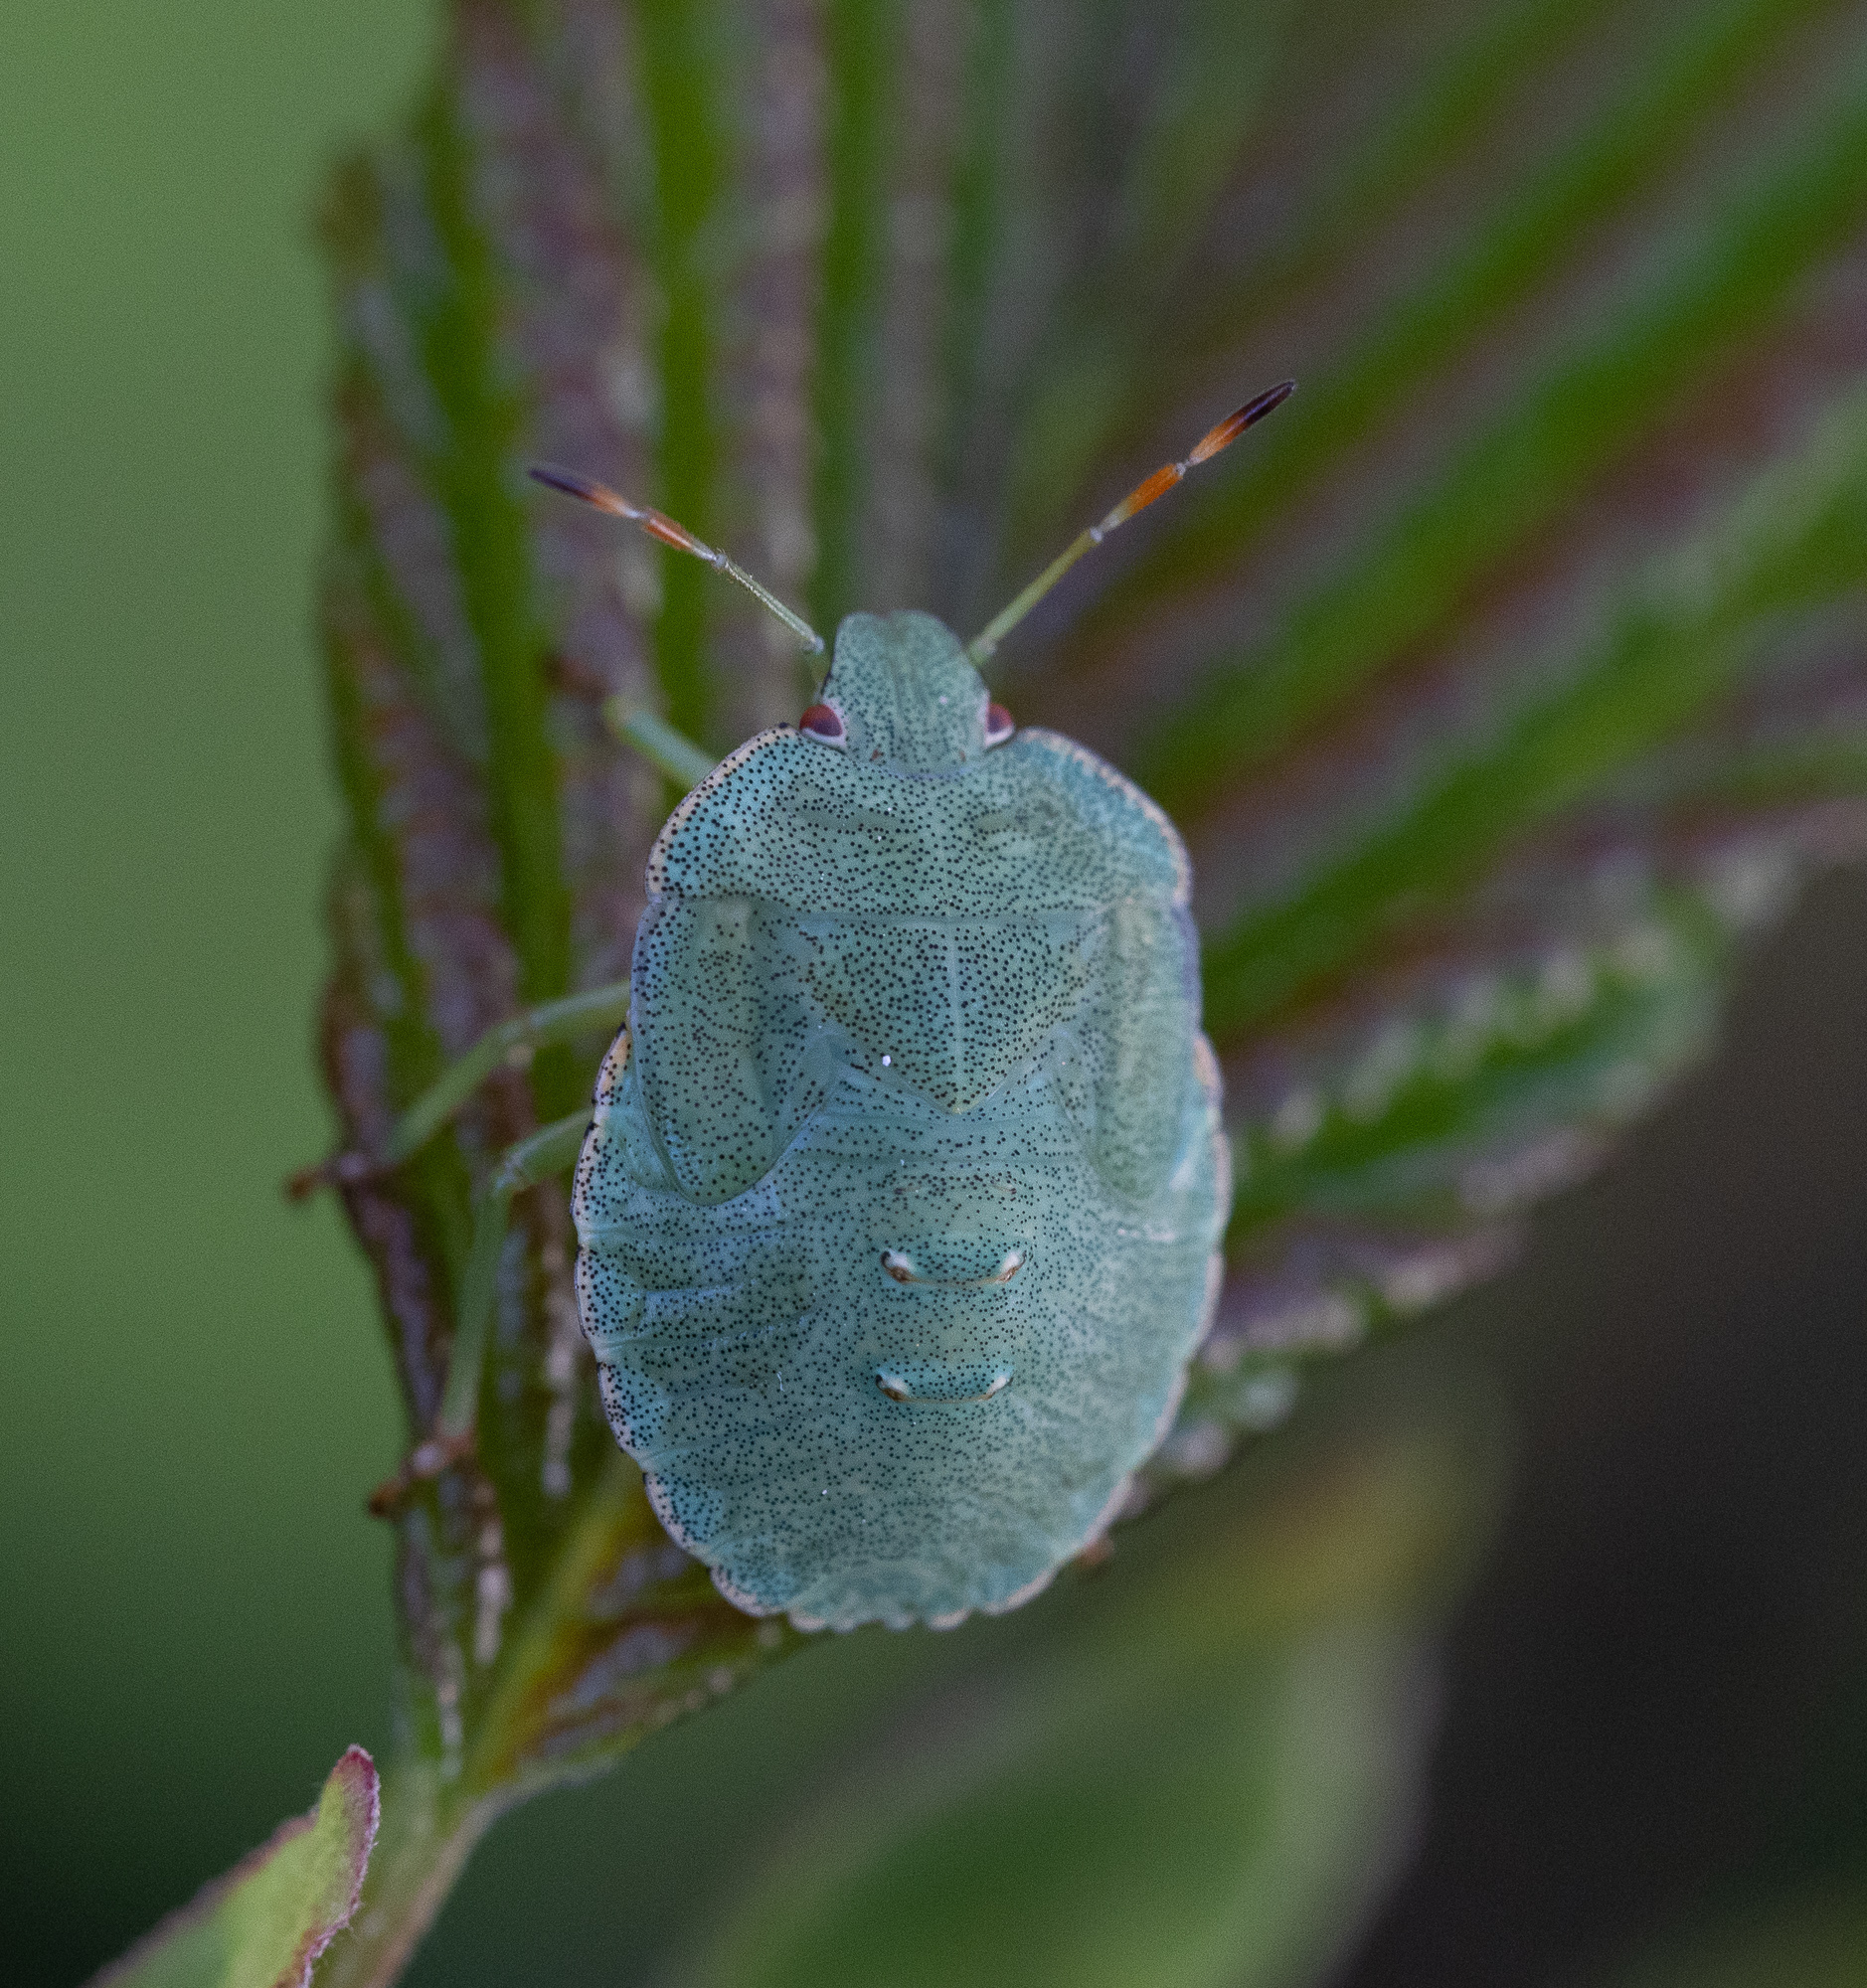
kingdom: Animalia
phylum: Arthropoda
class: Insecta
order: Hemiptera
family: Pentatomidae
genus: Palomena
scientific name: Palomena prasina
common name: Green shieldbug
